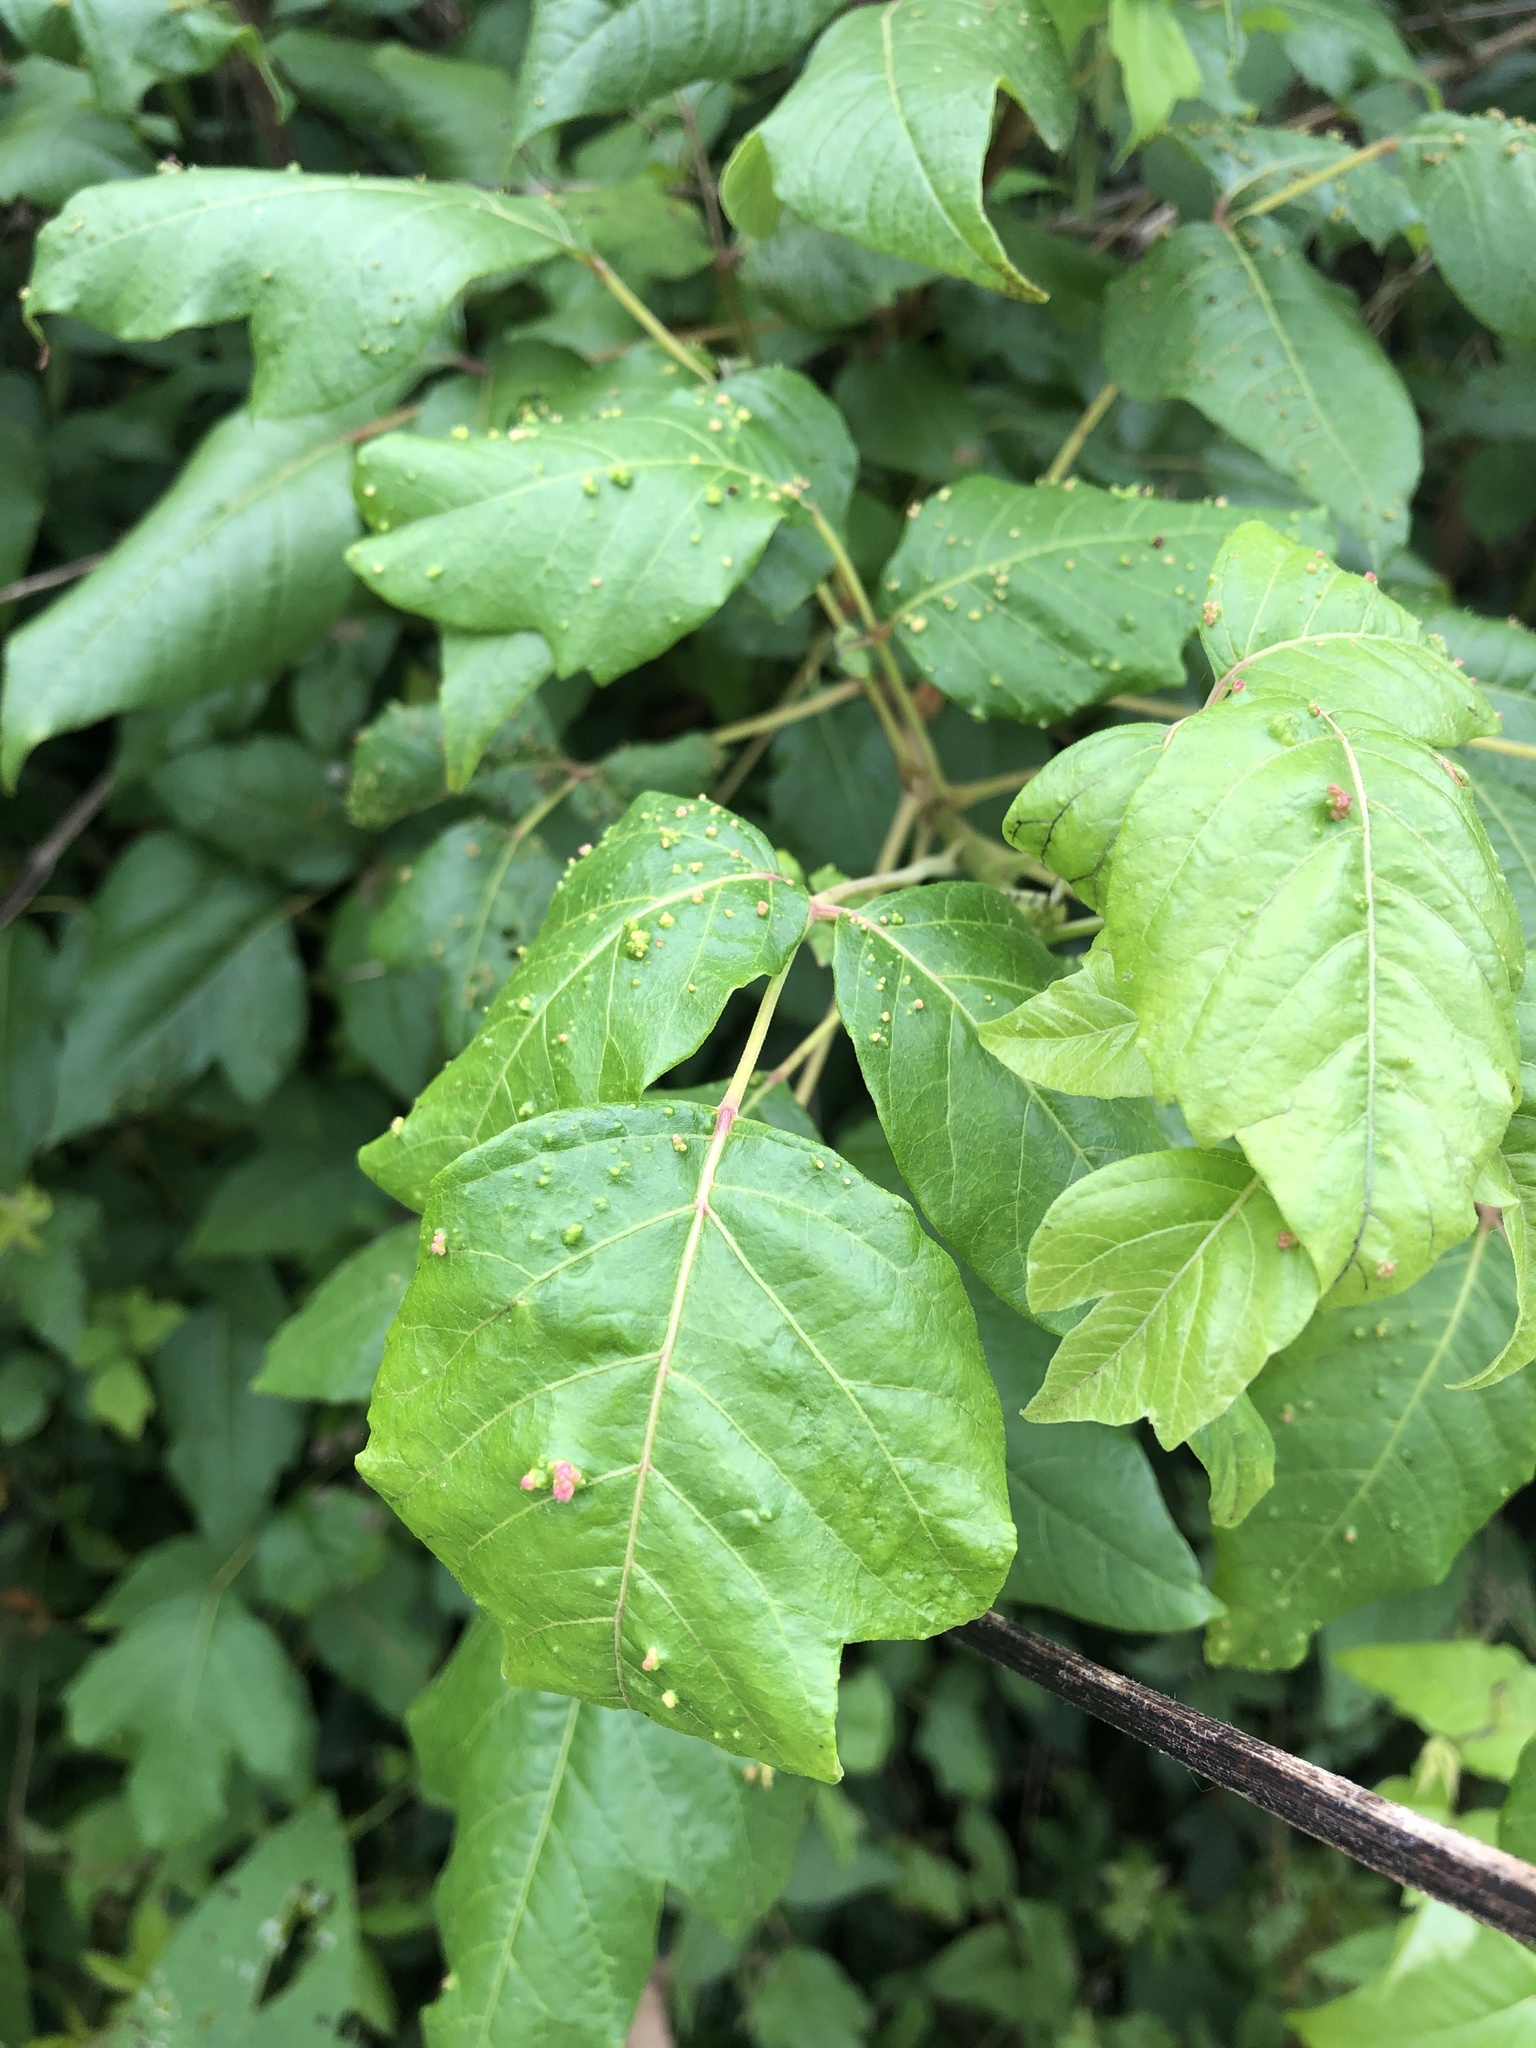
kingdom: Animalia
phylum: Arthropoda
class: Arachnida
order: Trombidiformes
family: Eriophyidae
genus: Aculops
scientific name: Aculops
